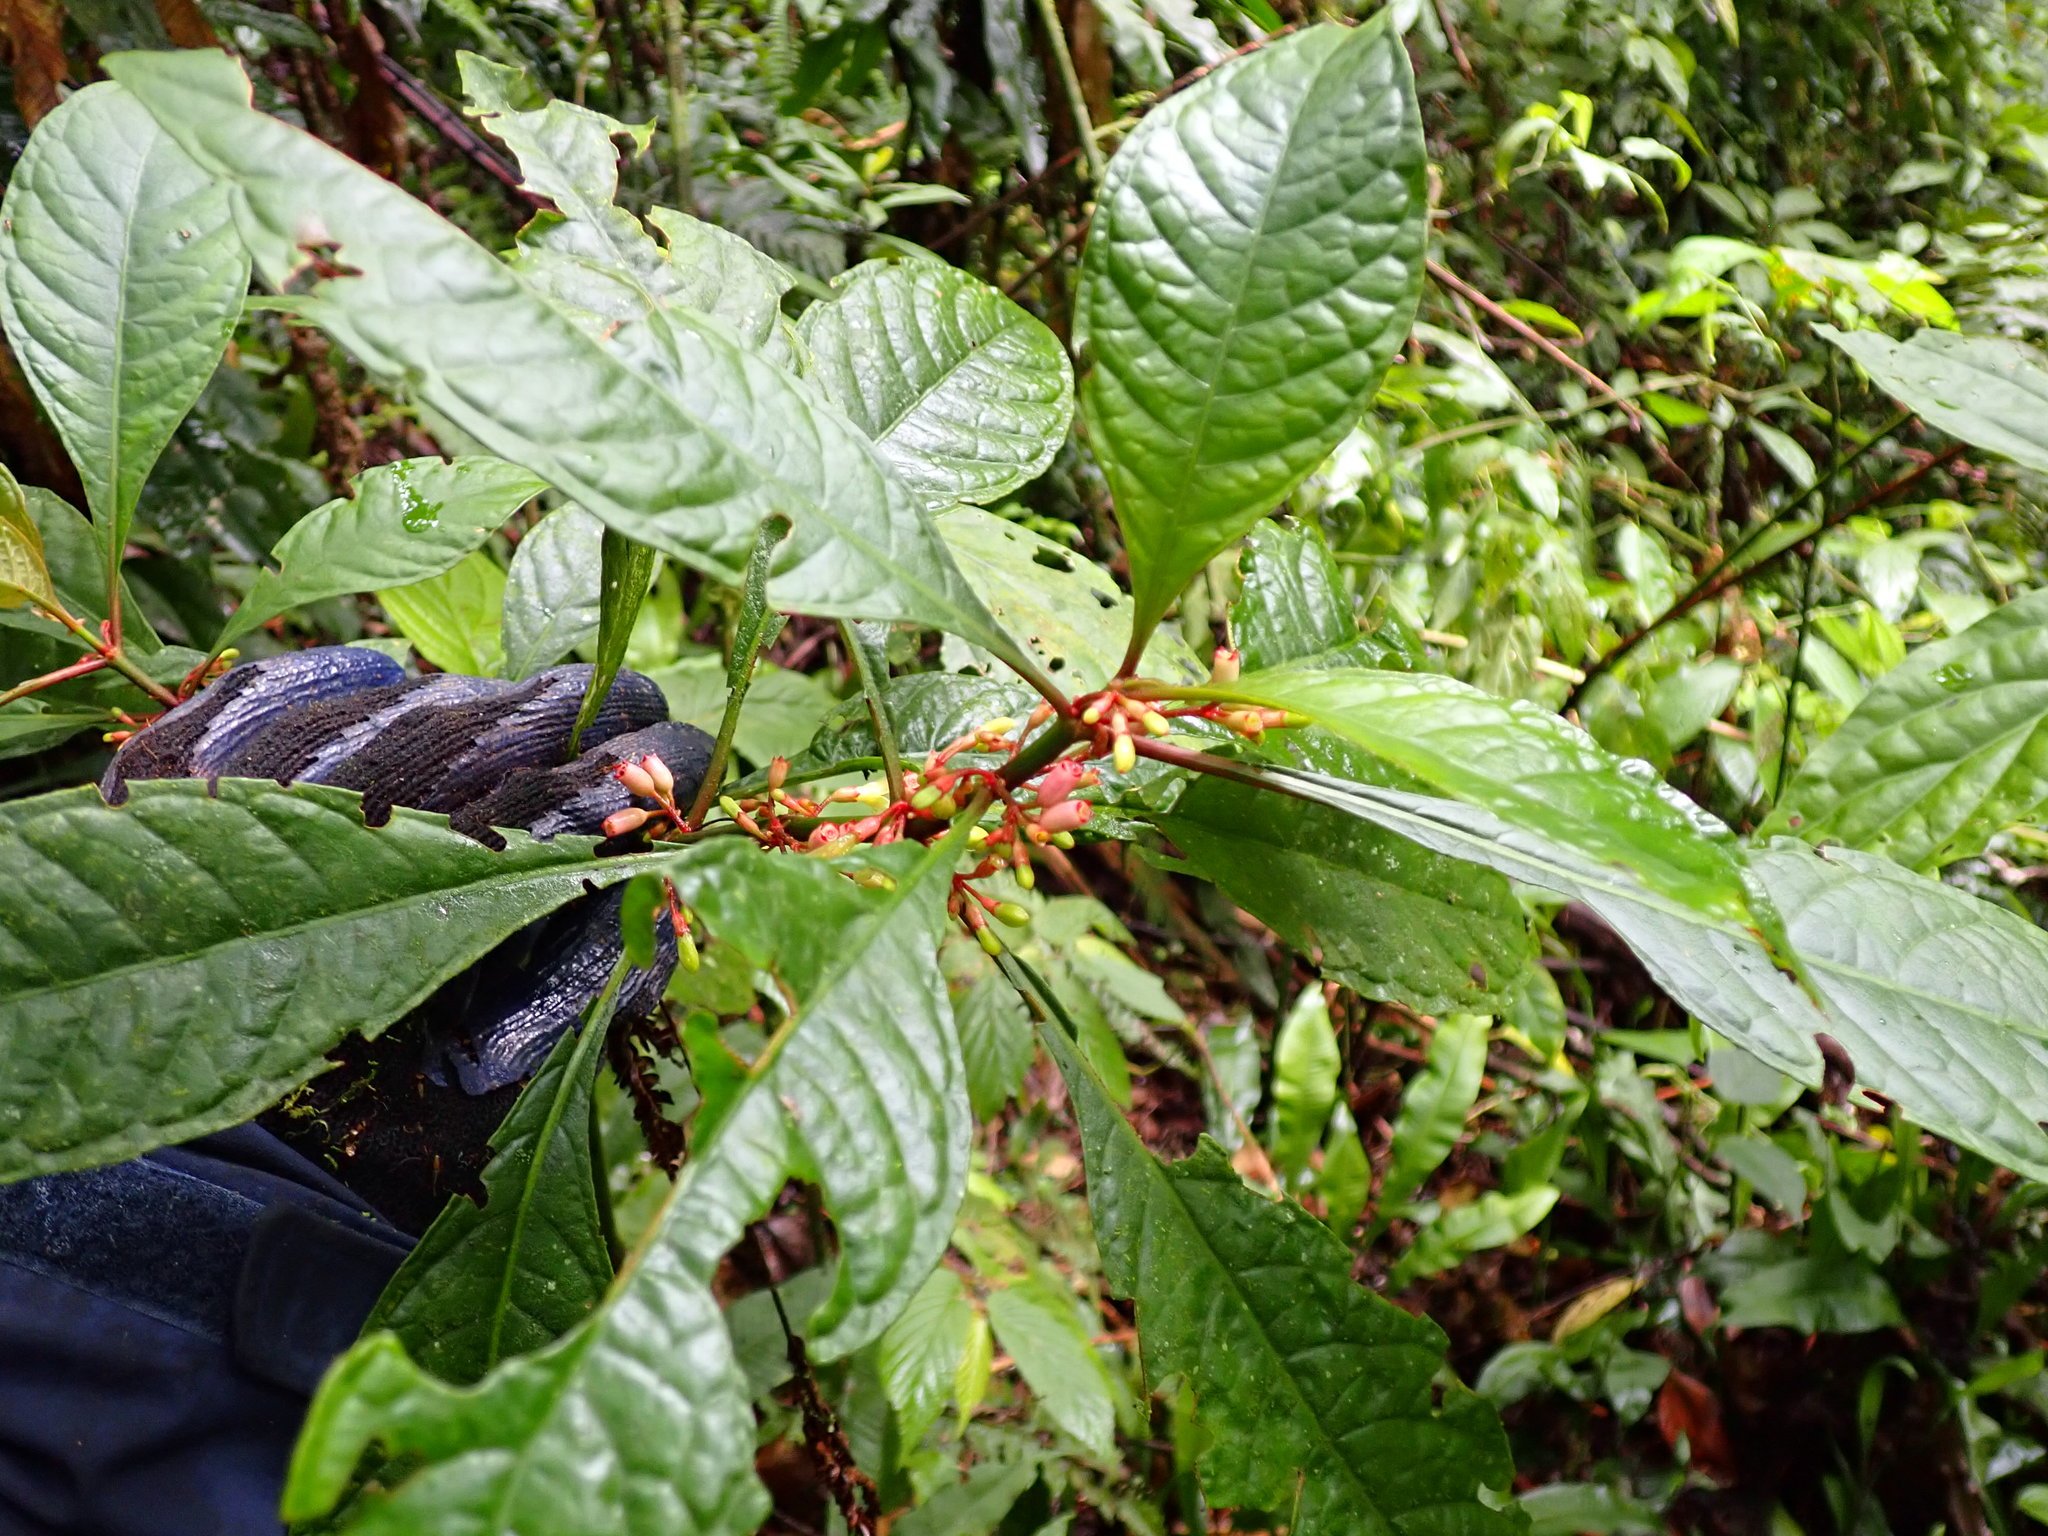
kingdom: Plantae
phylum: Tracheophyta
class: Magnoliopsida
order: Gentianales
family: Rubiaceae
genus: Hoffmannia
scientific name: Hoffmannia obovata
